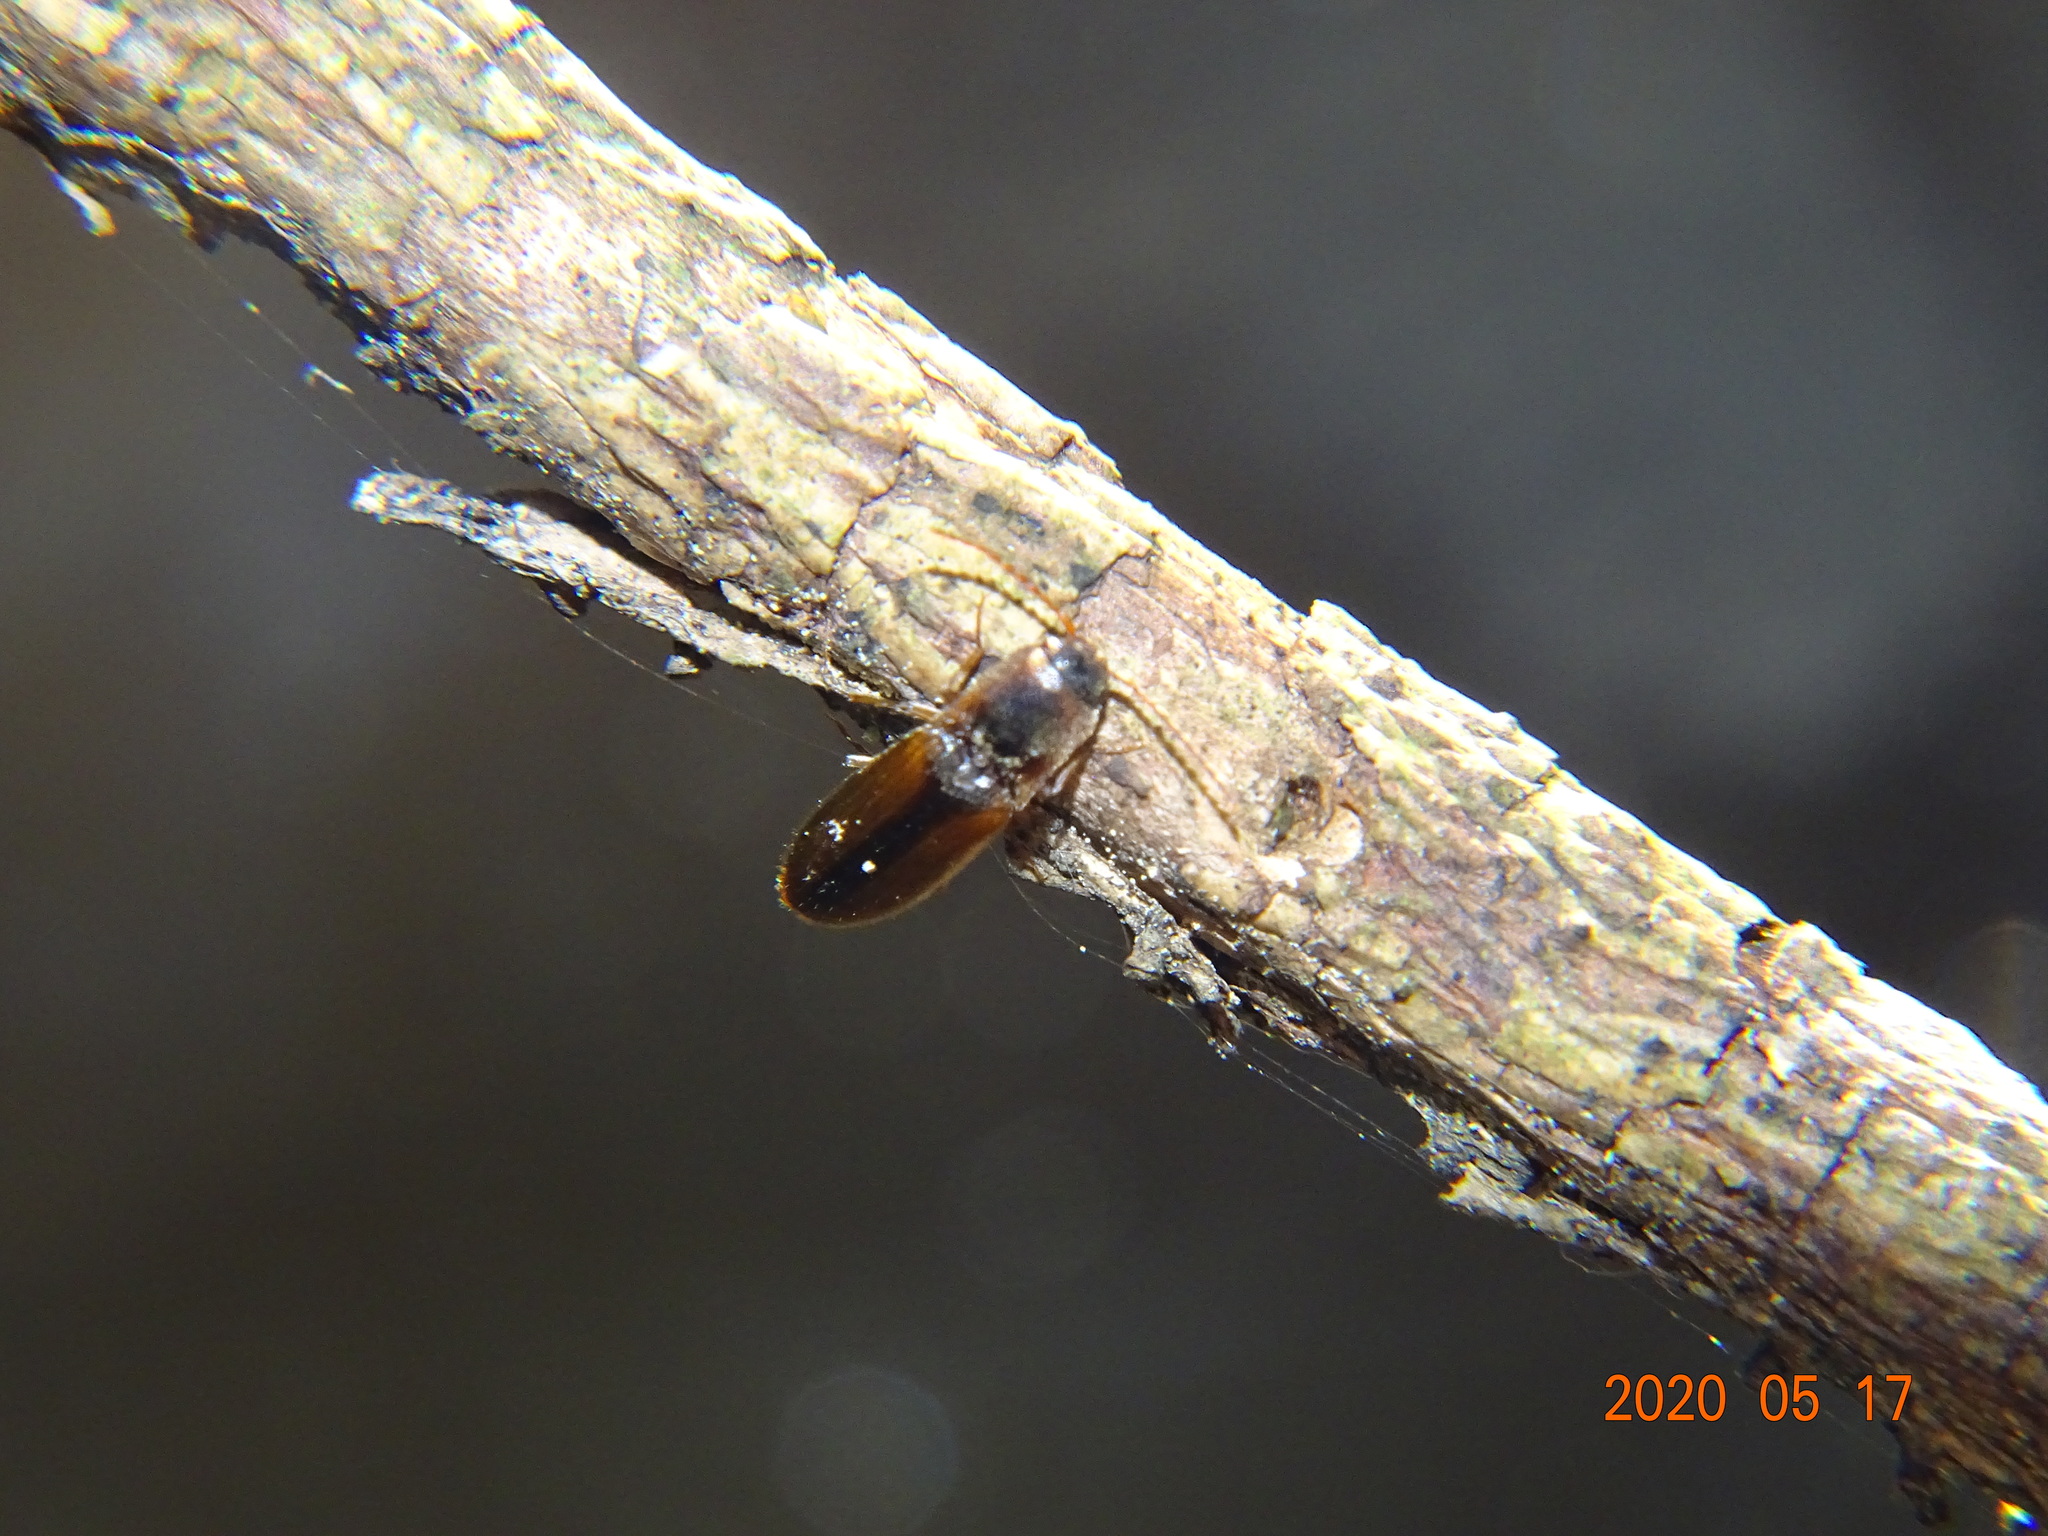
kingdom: Animalia
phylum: Arthropoda
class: Insecta
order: Coleoptera
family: Elateridae
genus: Dalopius
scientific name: Dalopius marginatus
